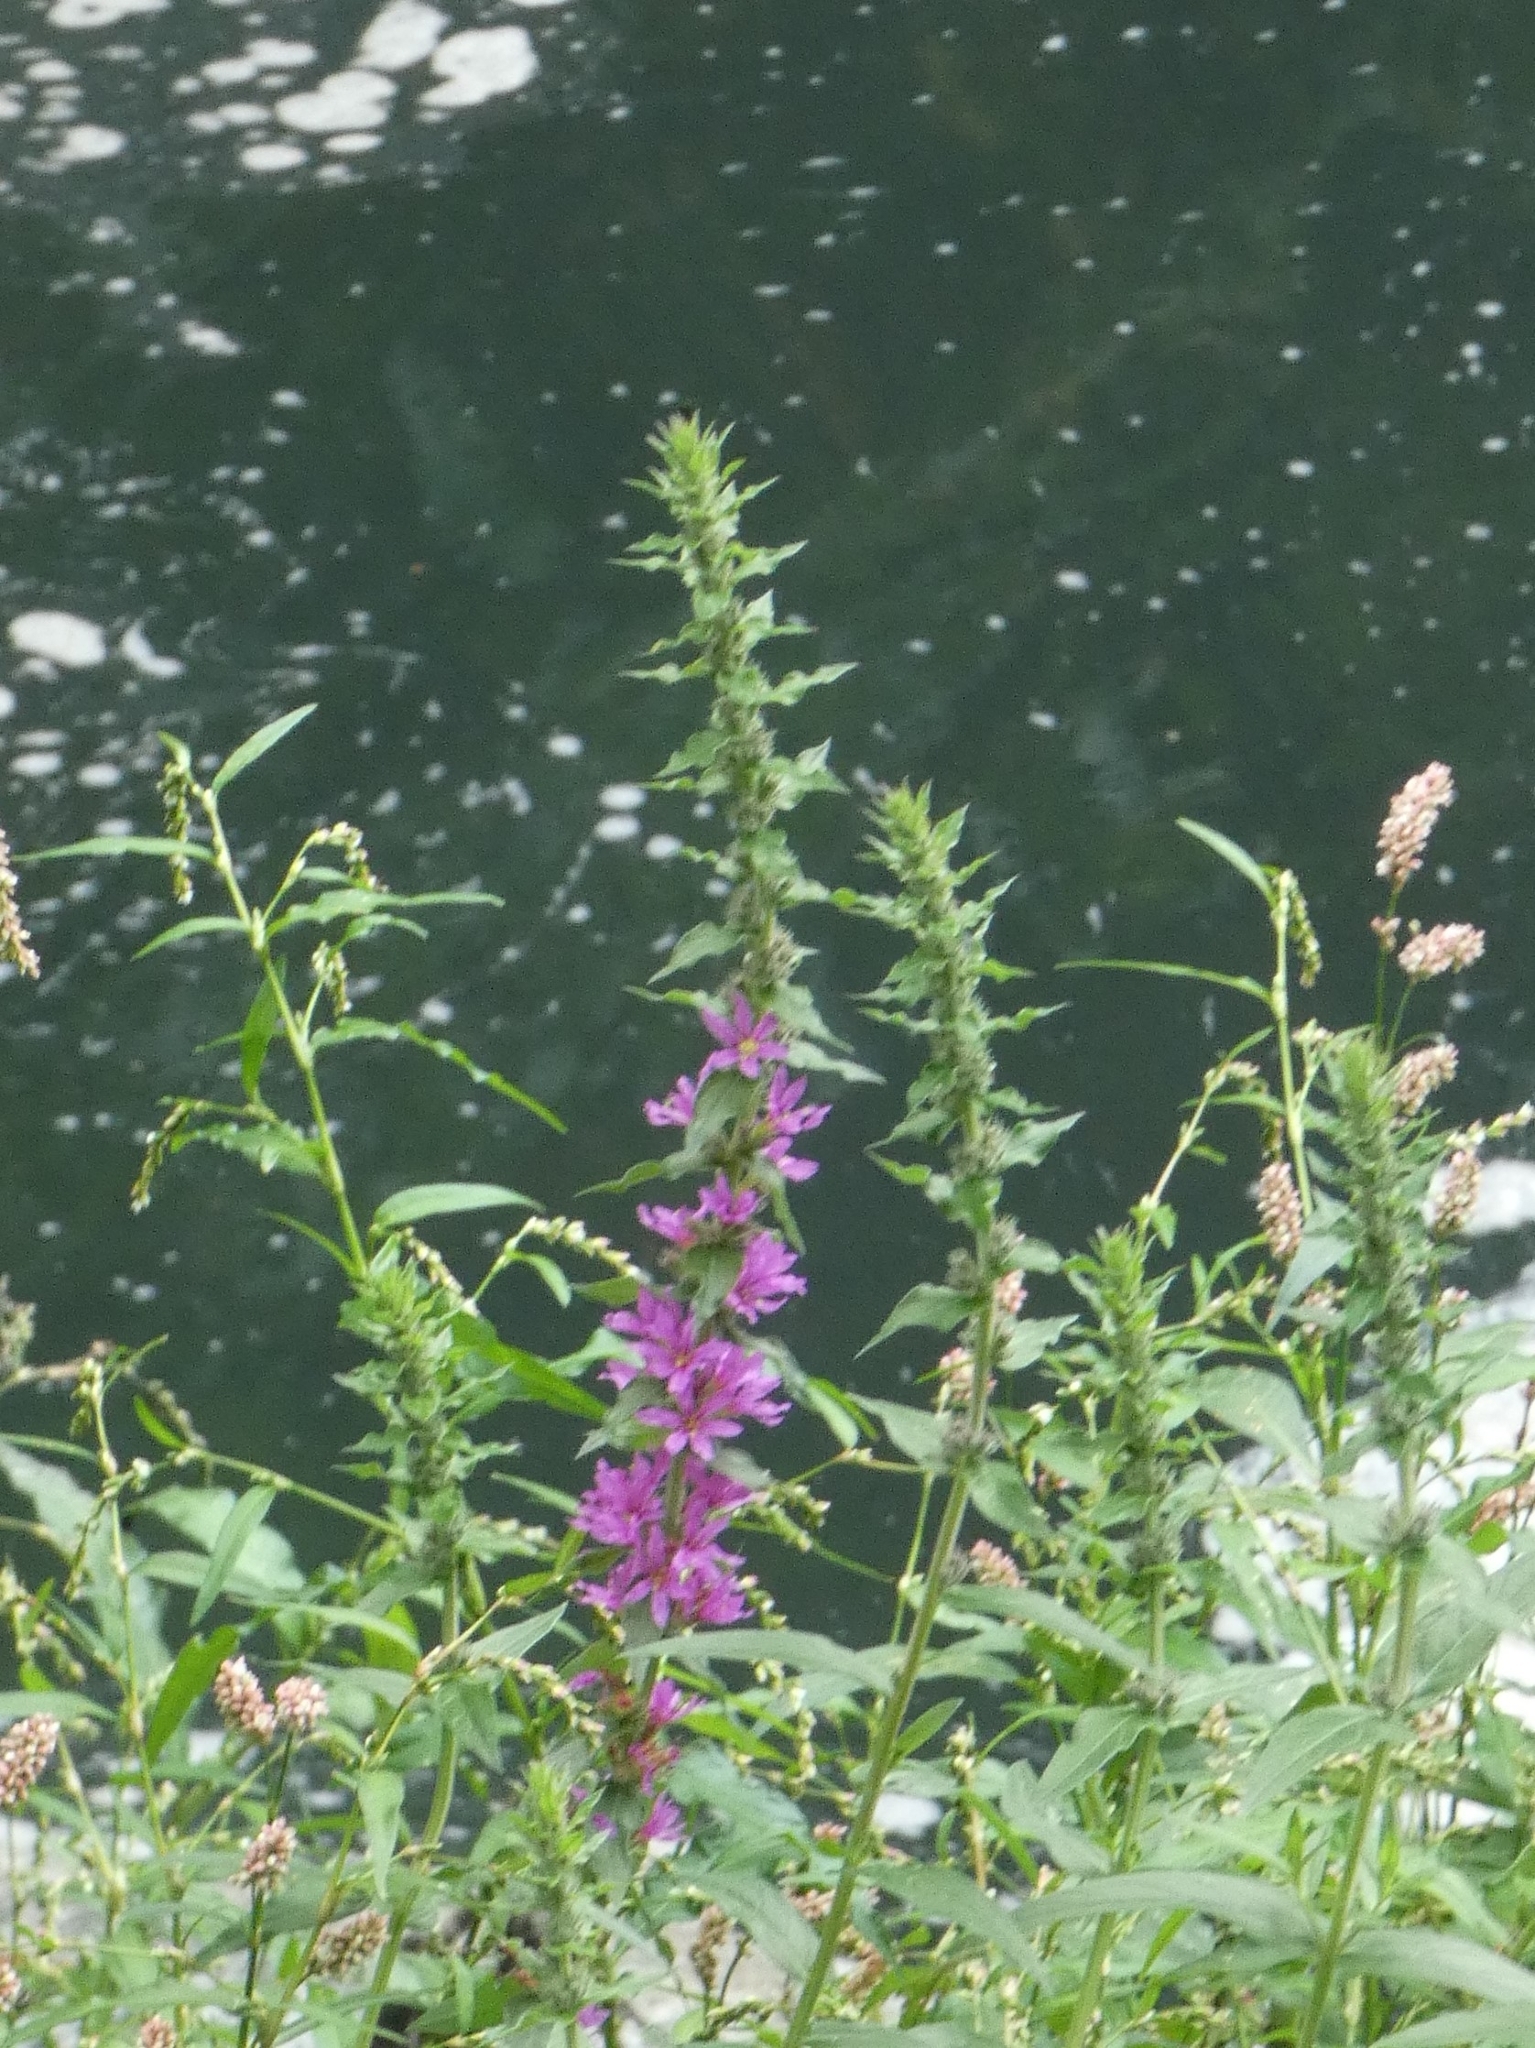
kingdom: Plantae
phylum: Tracheophyta
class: Magnoliopsida
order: Myrtales
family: Lythraceae
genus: Lythrum
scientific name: Lythrum salicaria
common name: Purple loosestrife
